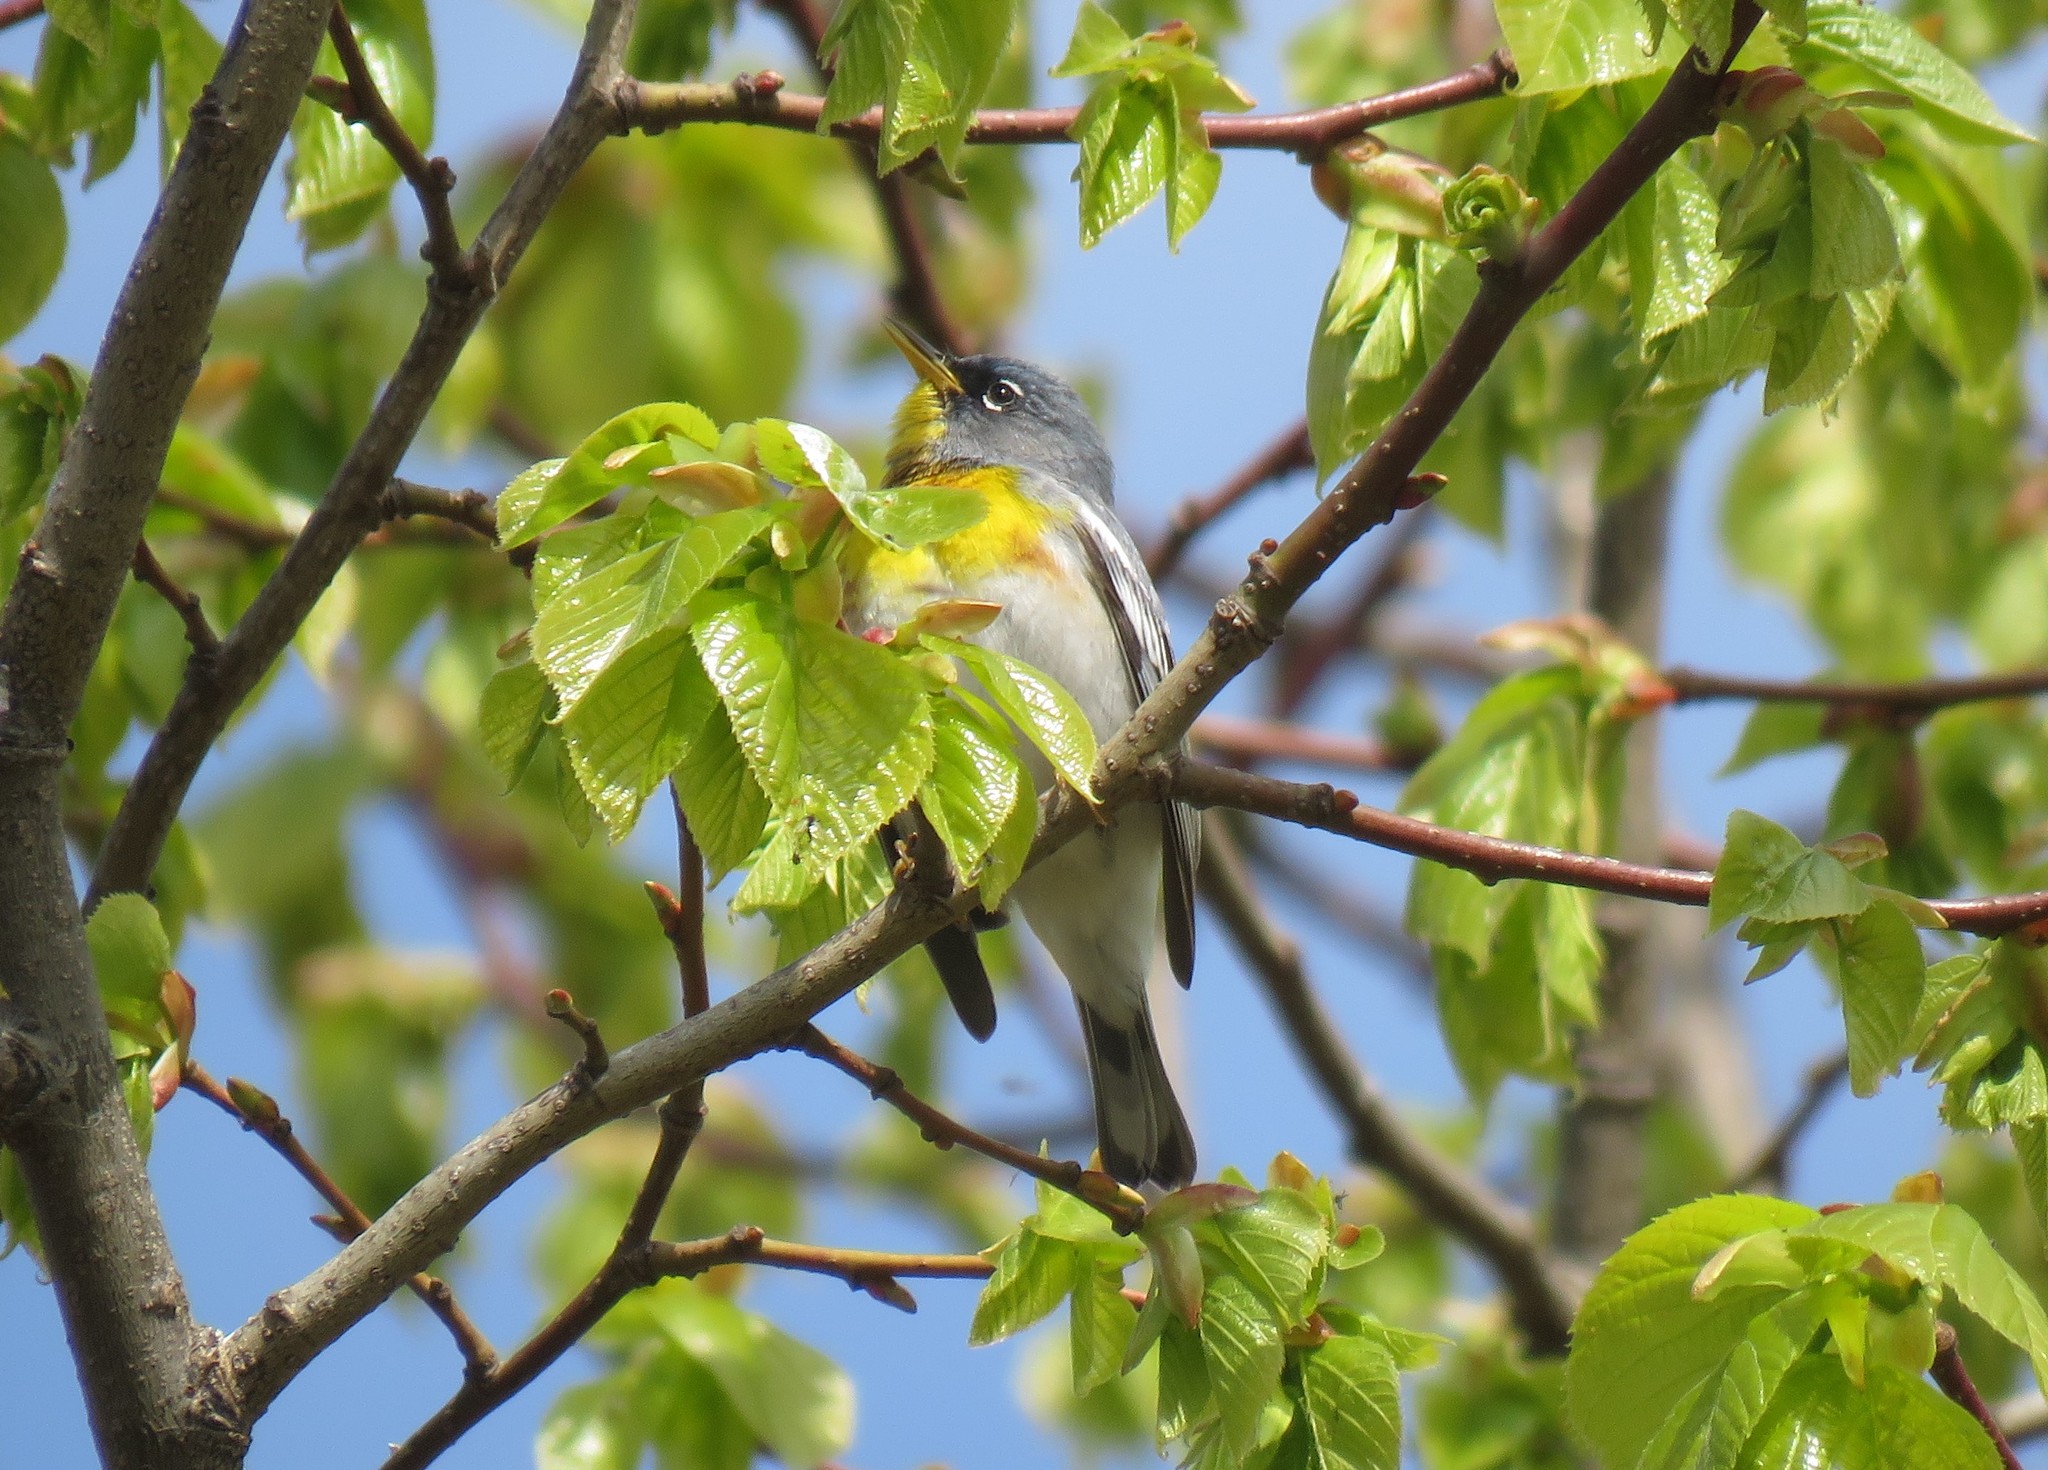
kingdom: Animalia
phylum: Chordata
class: Aves
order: Passeriformes
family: Parulidae
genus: Setophaga
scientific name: Setophaga americana
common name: Northern parula
